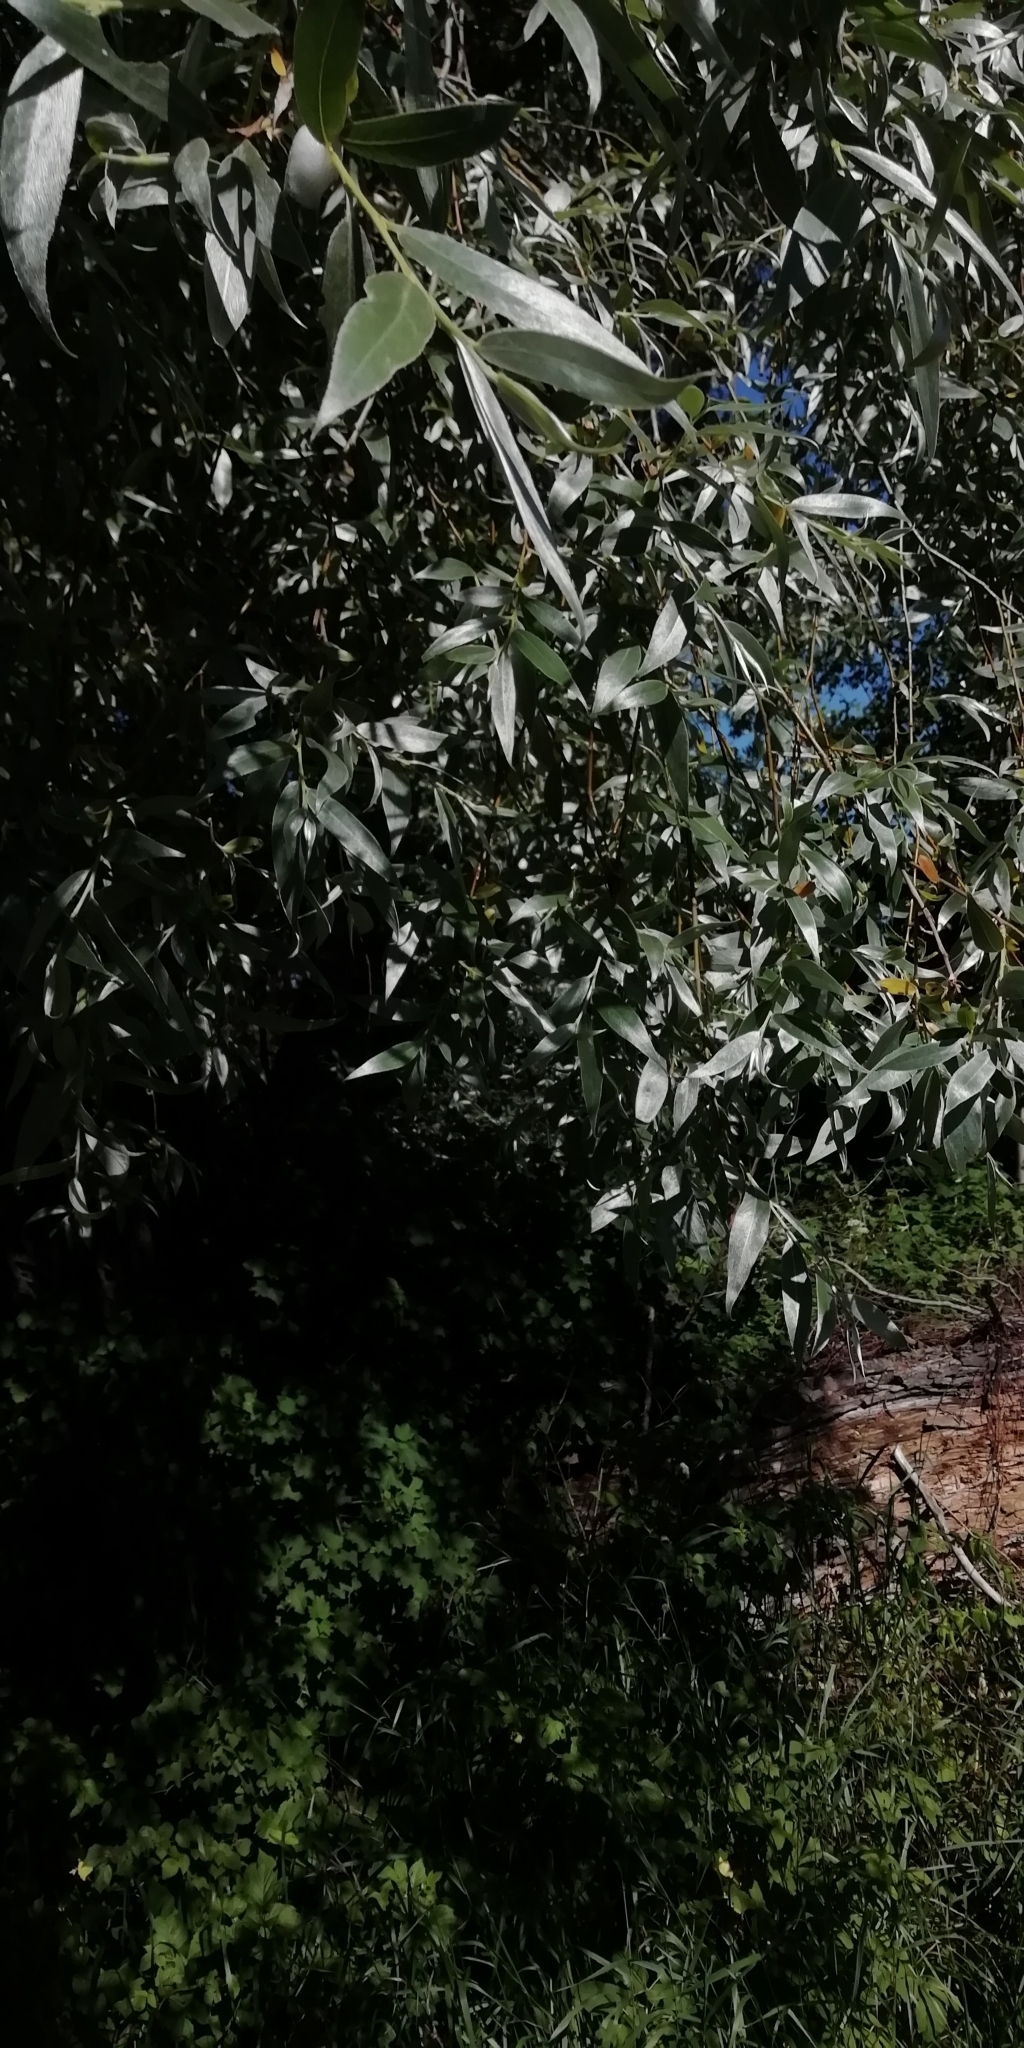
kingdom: Plantae
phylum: Tracheophyta
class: Magnoliopsida
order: Malpighiales
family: Salicaceae
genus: Salix
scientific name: Salix alba
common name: White willow
